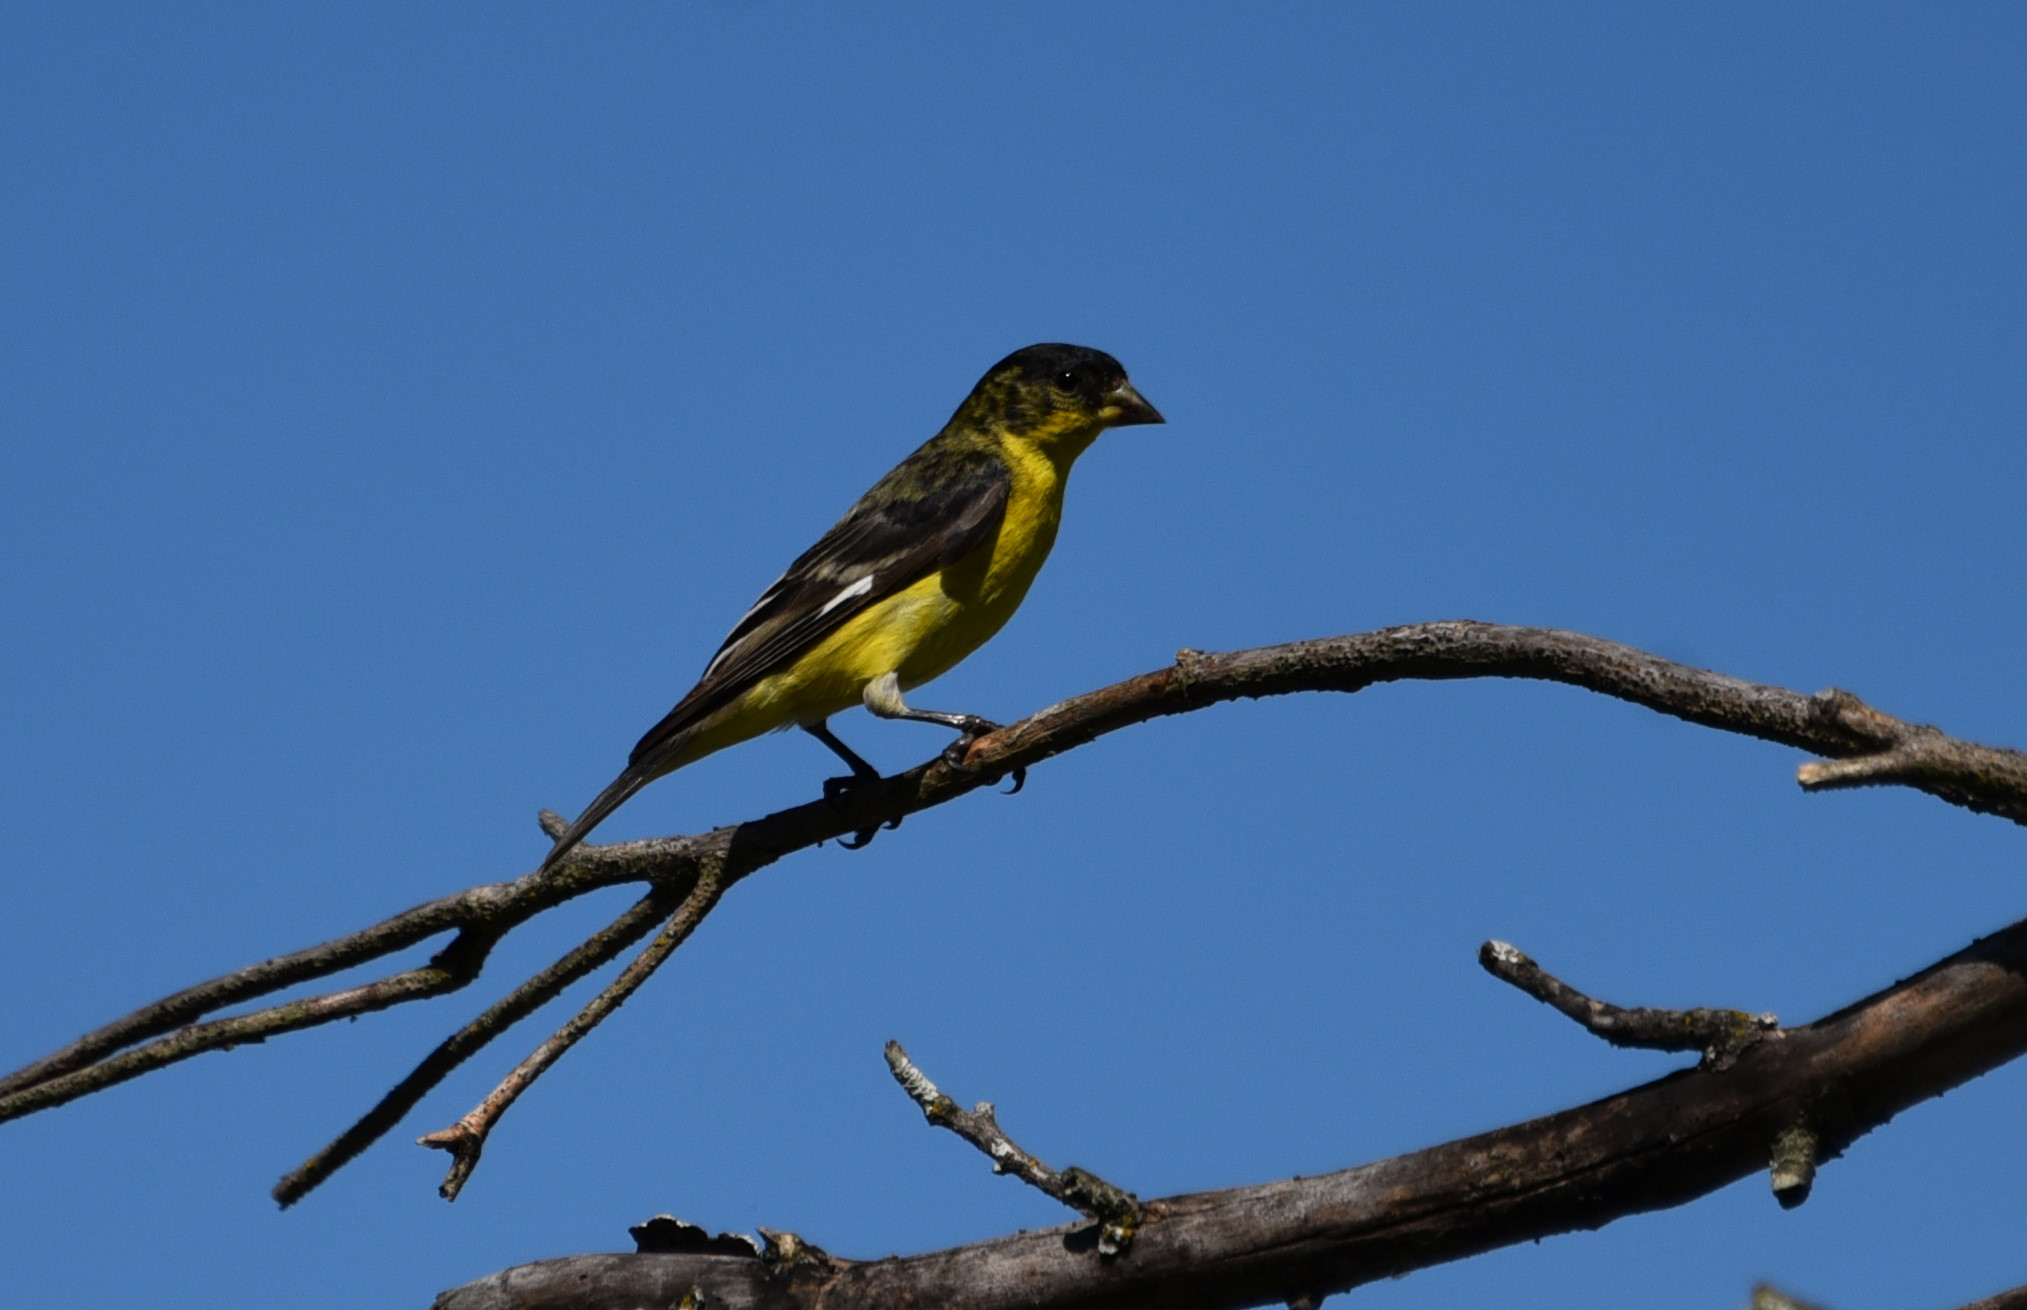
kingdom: Animalia
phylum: Chordata
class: Aves
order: Passeriformes
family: Fringillidae
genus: Spinus
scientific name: Spinus psaltria
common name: Lesser goldfinch
